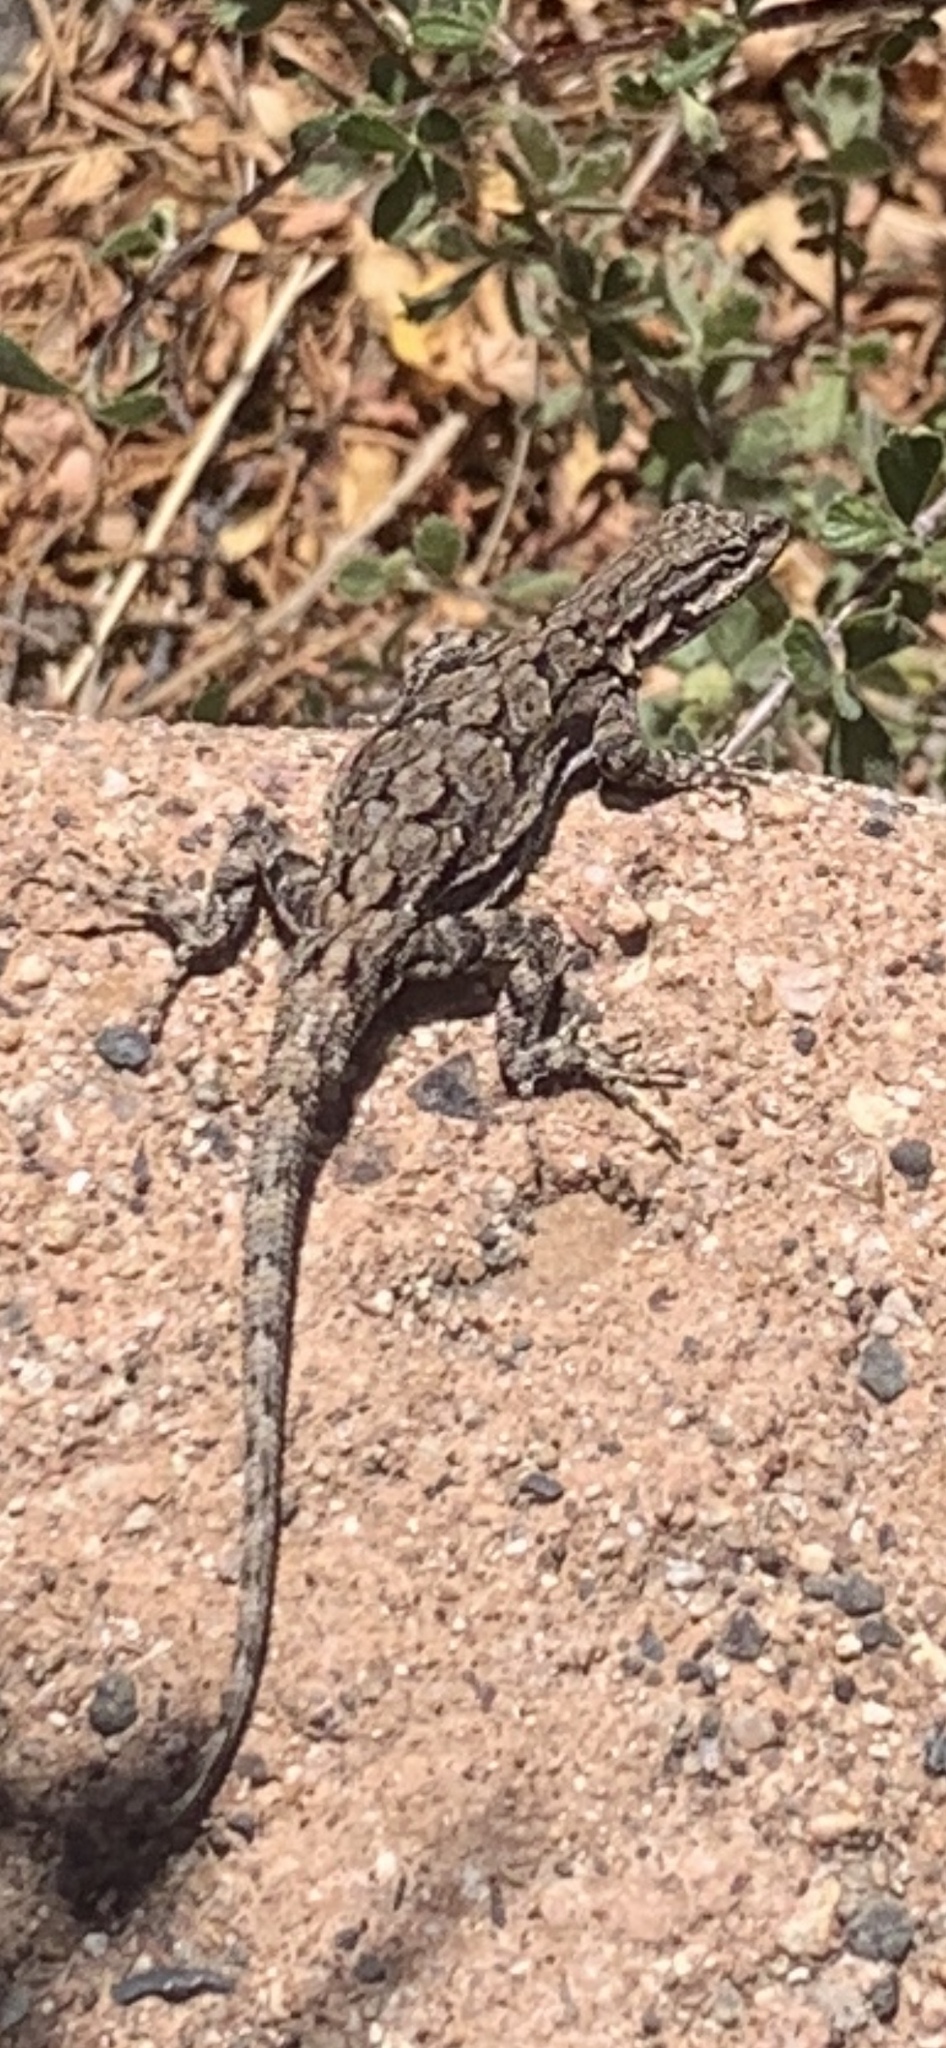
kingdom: Animalia
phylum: Chordata
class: Squamata
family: Phrynosomatidae
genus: Urosaurus
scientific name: Urosaurus ornatus
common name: Ornate tree lizard
